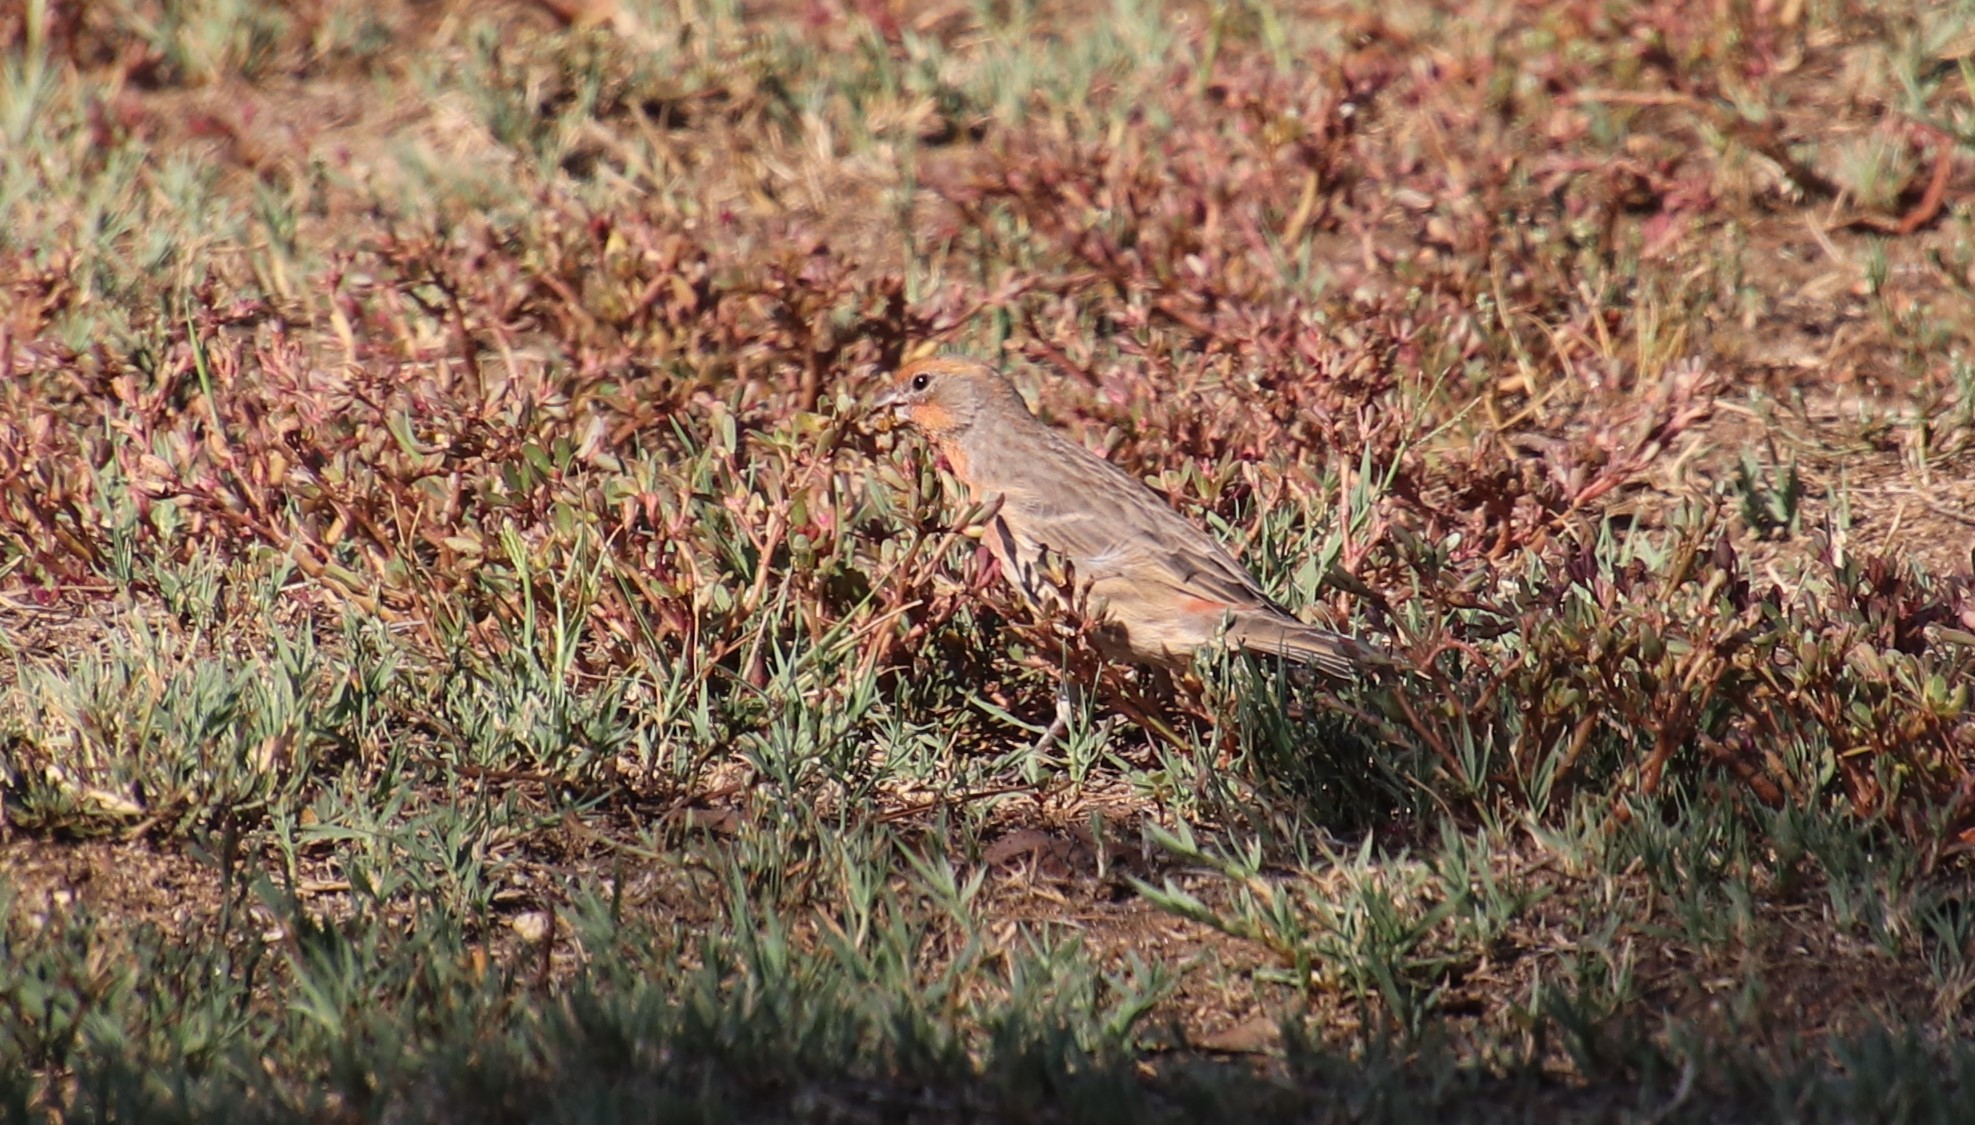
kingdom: Animalia
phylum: Chordata
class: Aves
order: Passeriformes
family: Fringillidae
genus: Haemorhous
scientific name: Haemorhous mexicanus
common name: House finch
